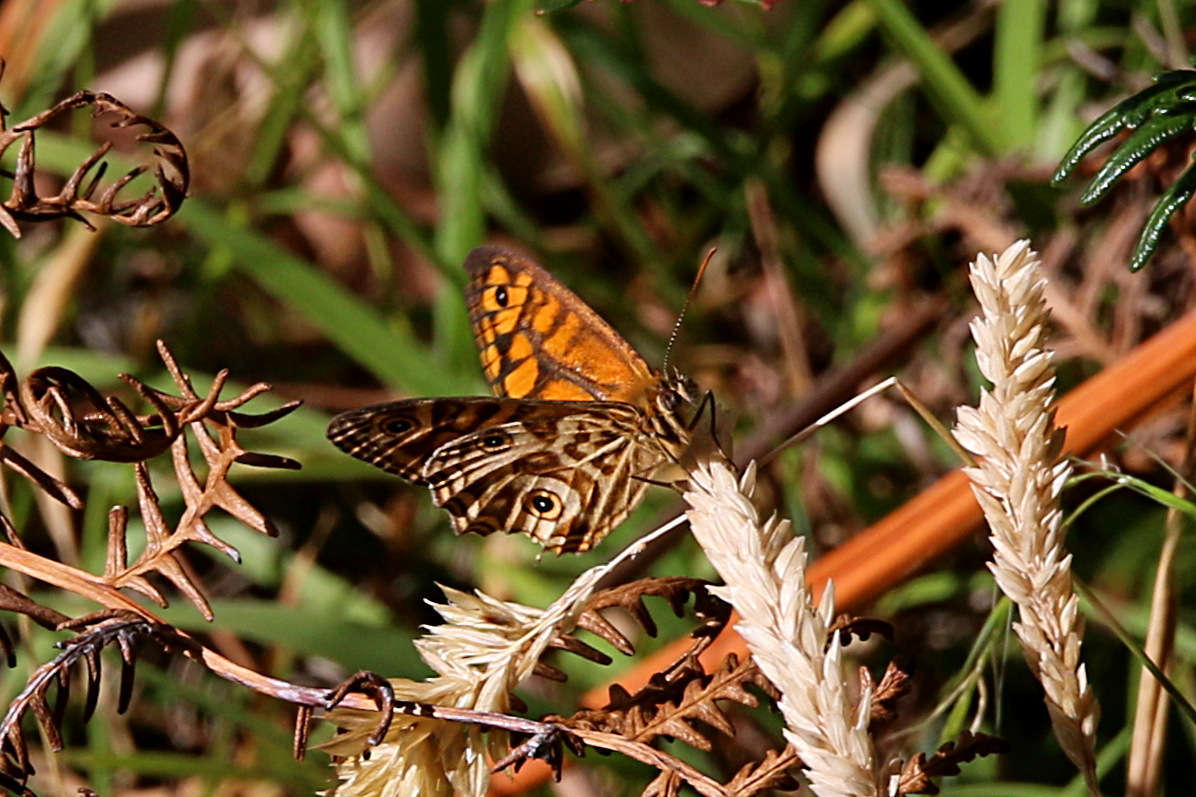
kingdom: Animalia
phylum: Arthropoda
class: Insecta
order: Lepidoptera
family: Nymphalidae
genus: Geitoneura
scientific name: Geitoneura acantha
